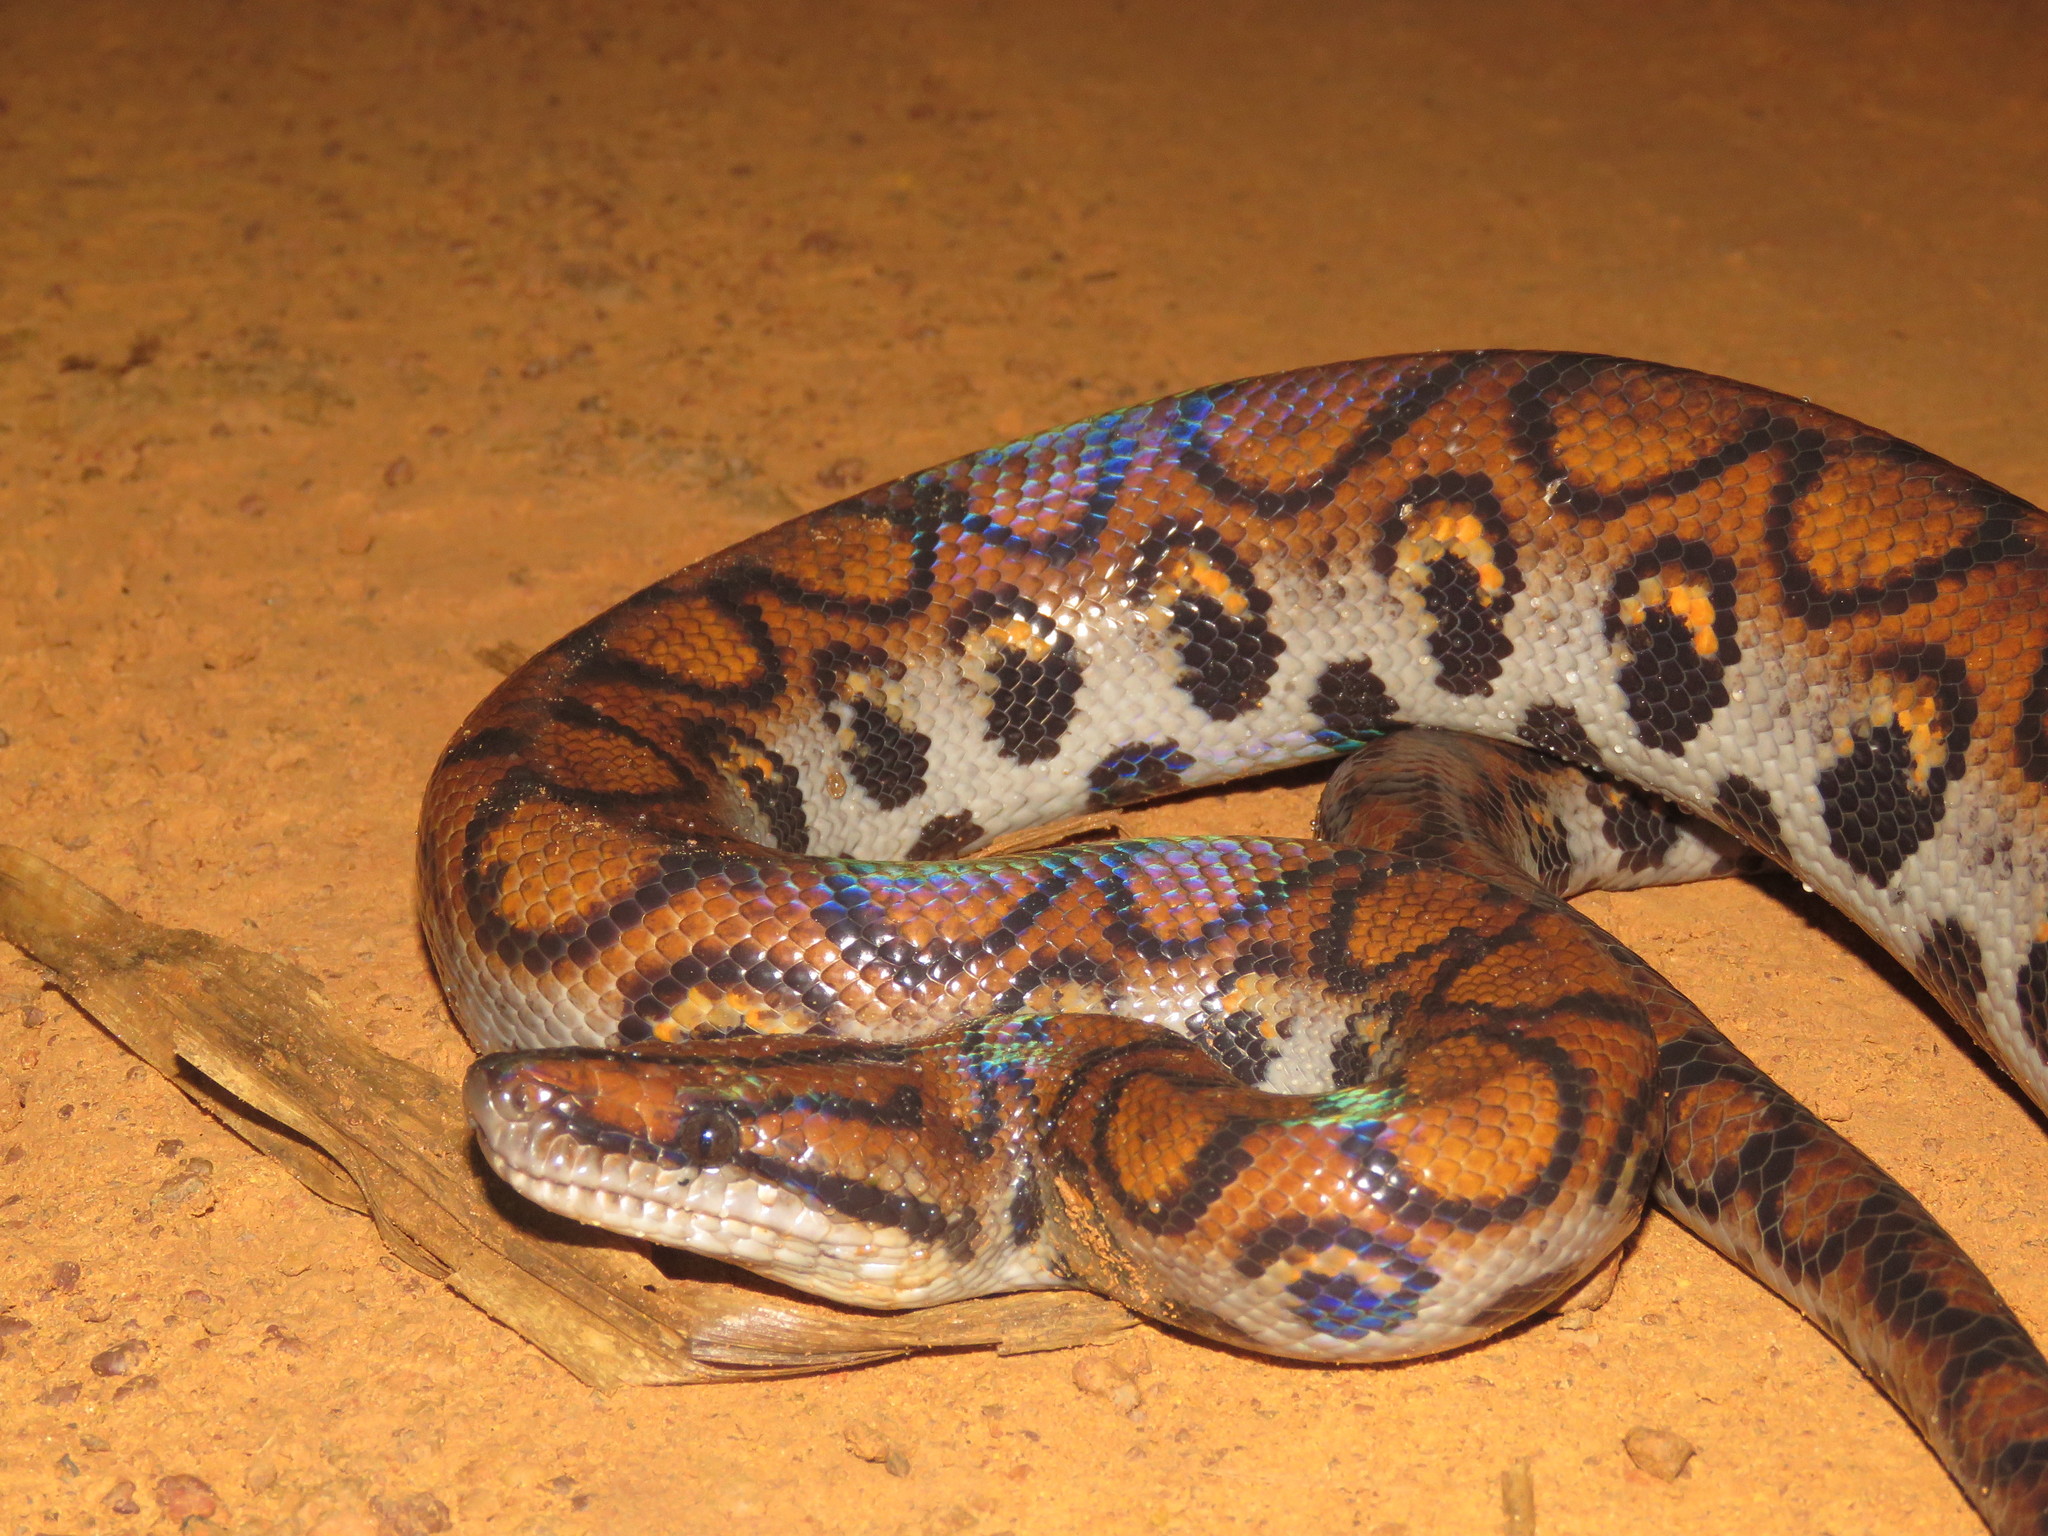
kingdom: Animalia
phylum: Chordata
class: Squamata
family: Boidae
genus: Epicrates
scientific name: Epicrates cenchria
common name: Rainbow boa
